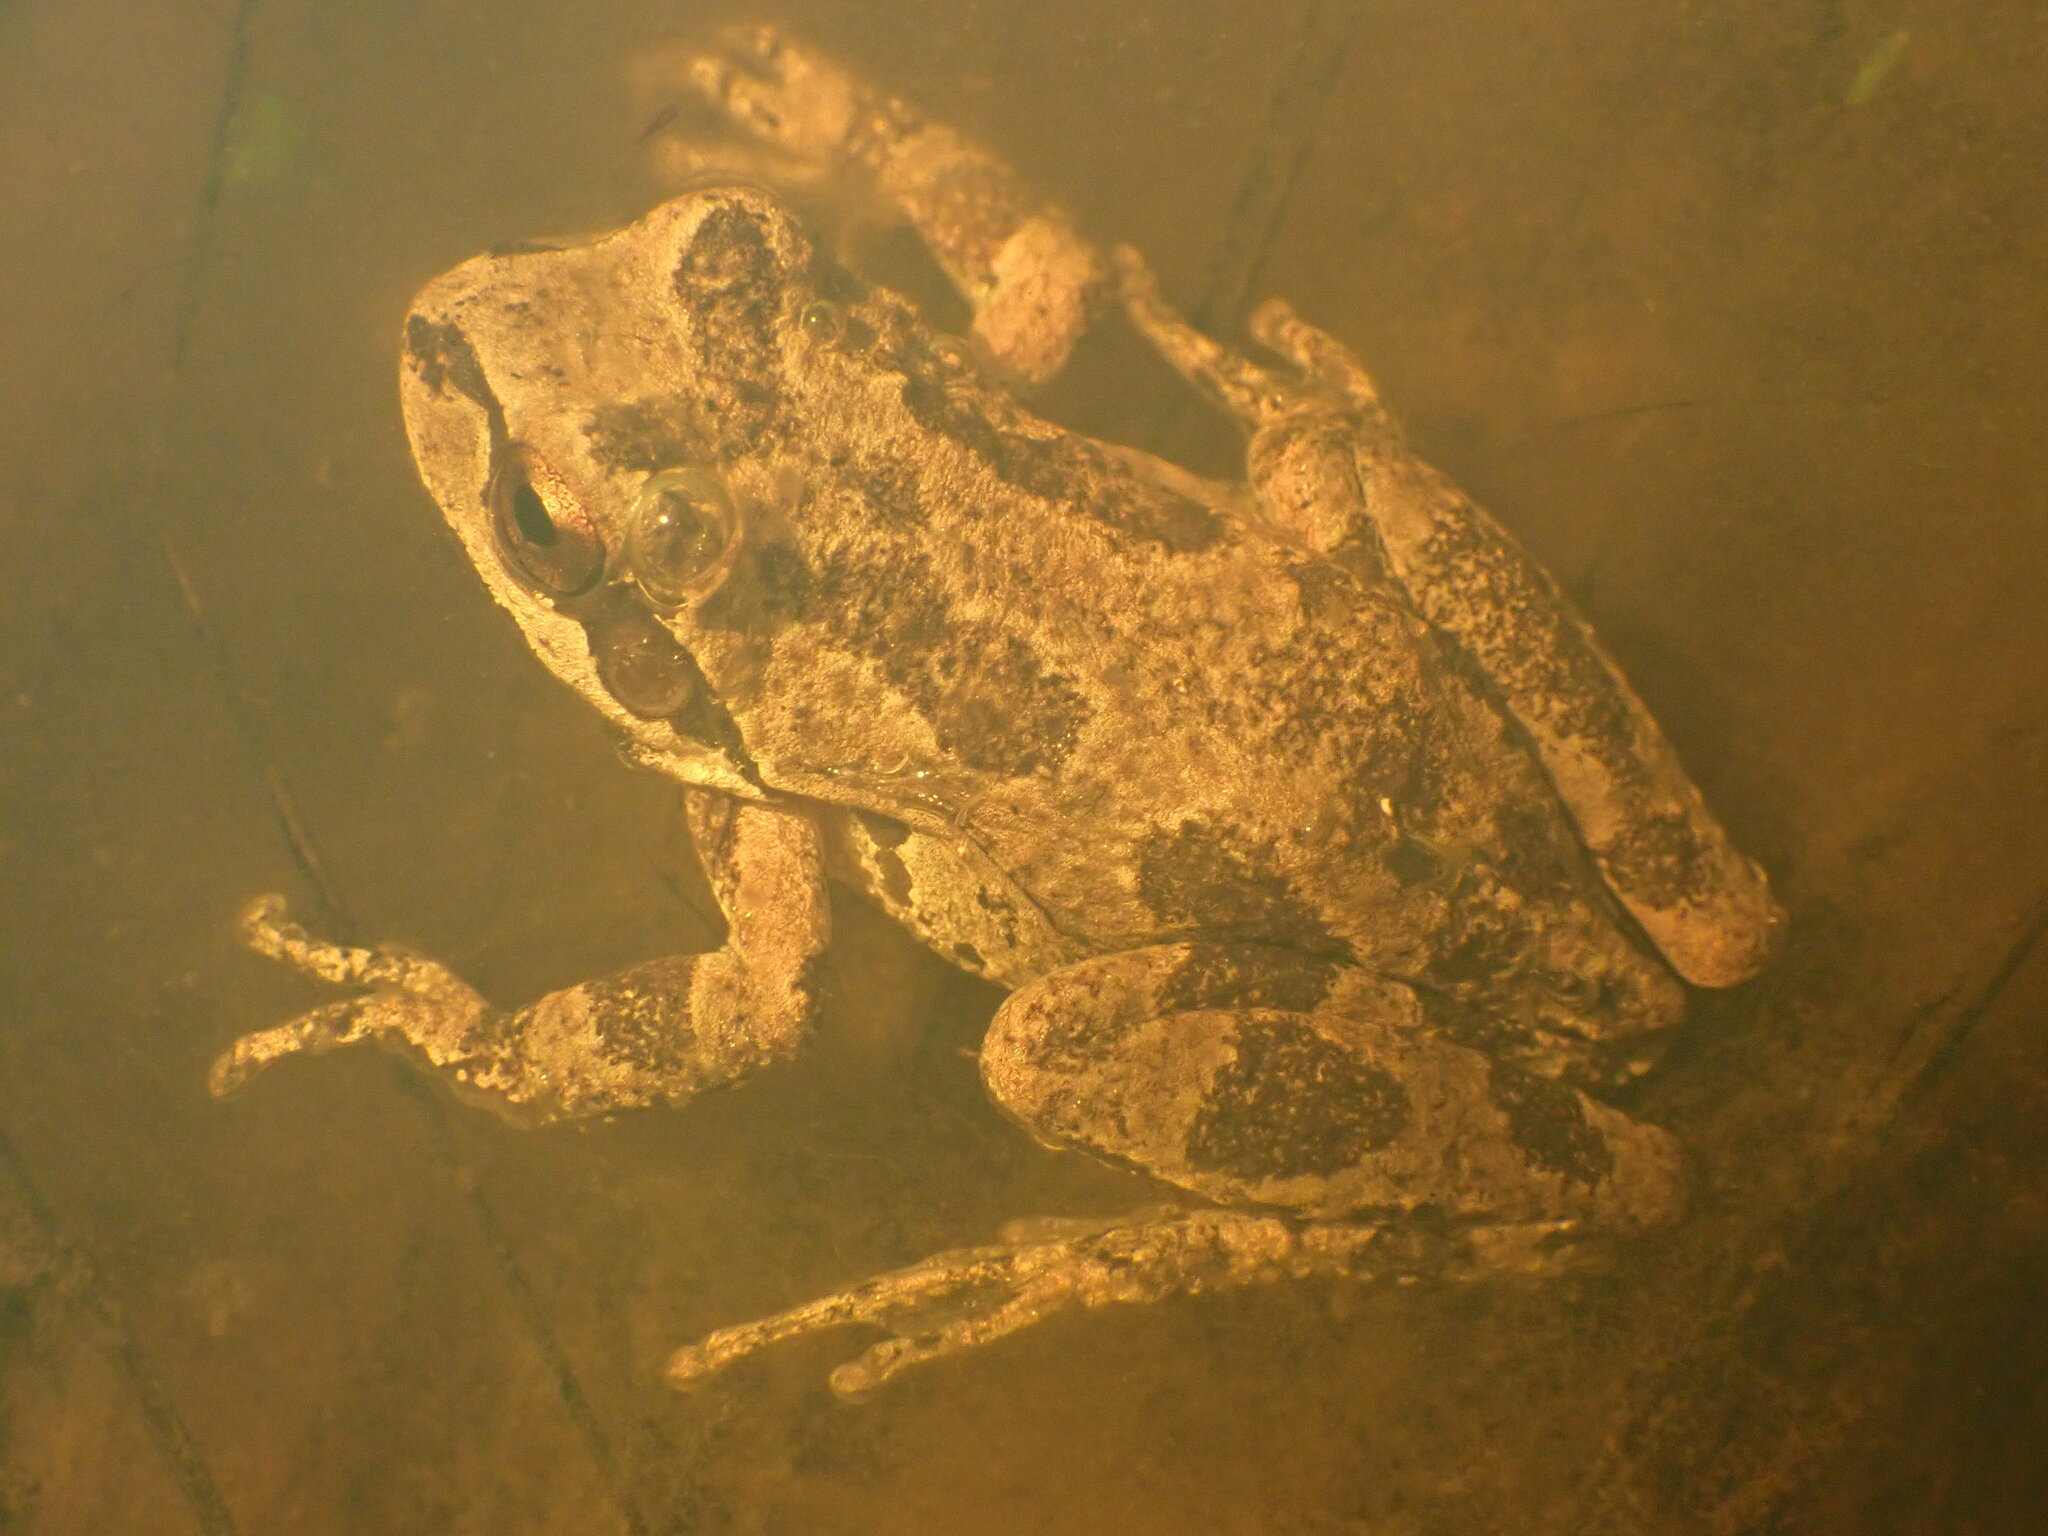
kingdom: Animalia
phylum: Chordata
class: Amphibia
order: Anura
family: Hylidae
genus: Pseudacris
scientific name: Pseudacris regilla
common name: Pacific chorus frog
